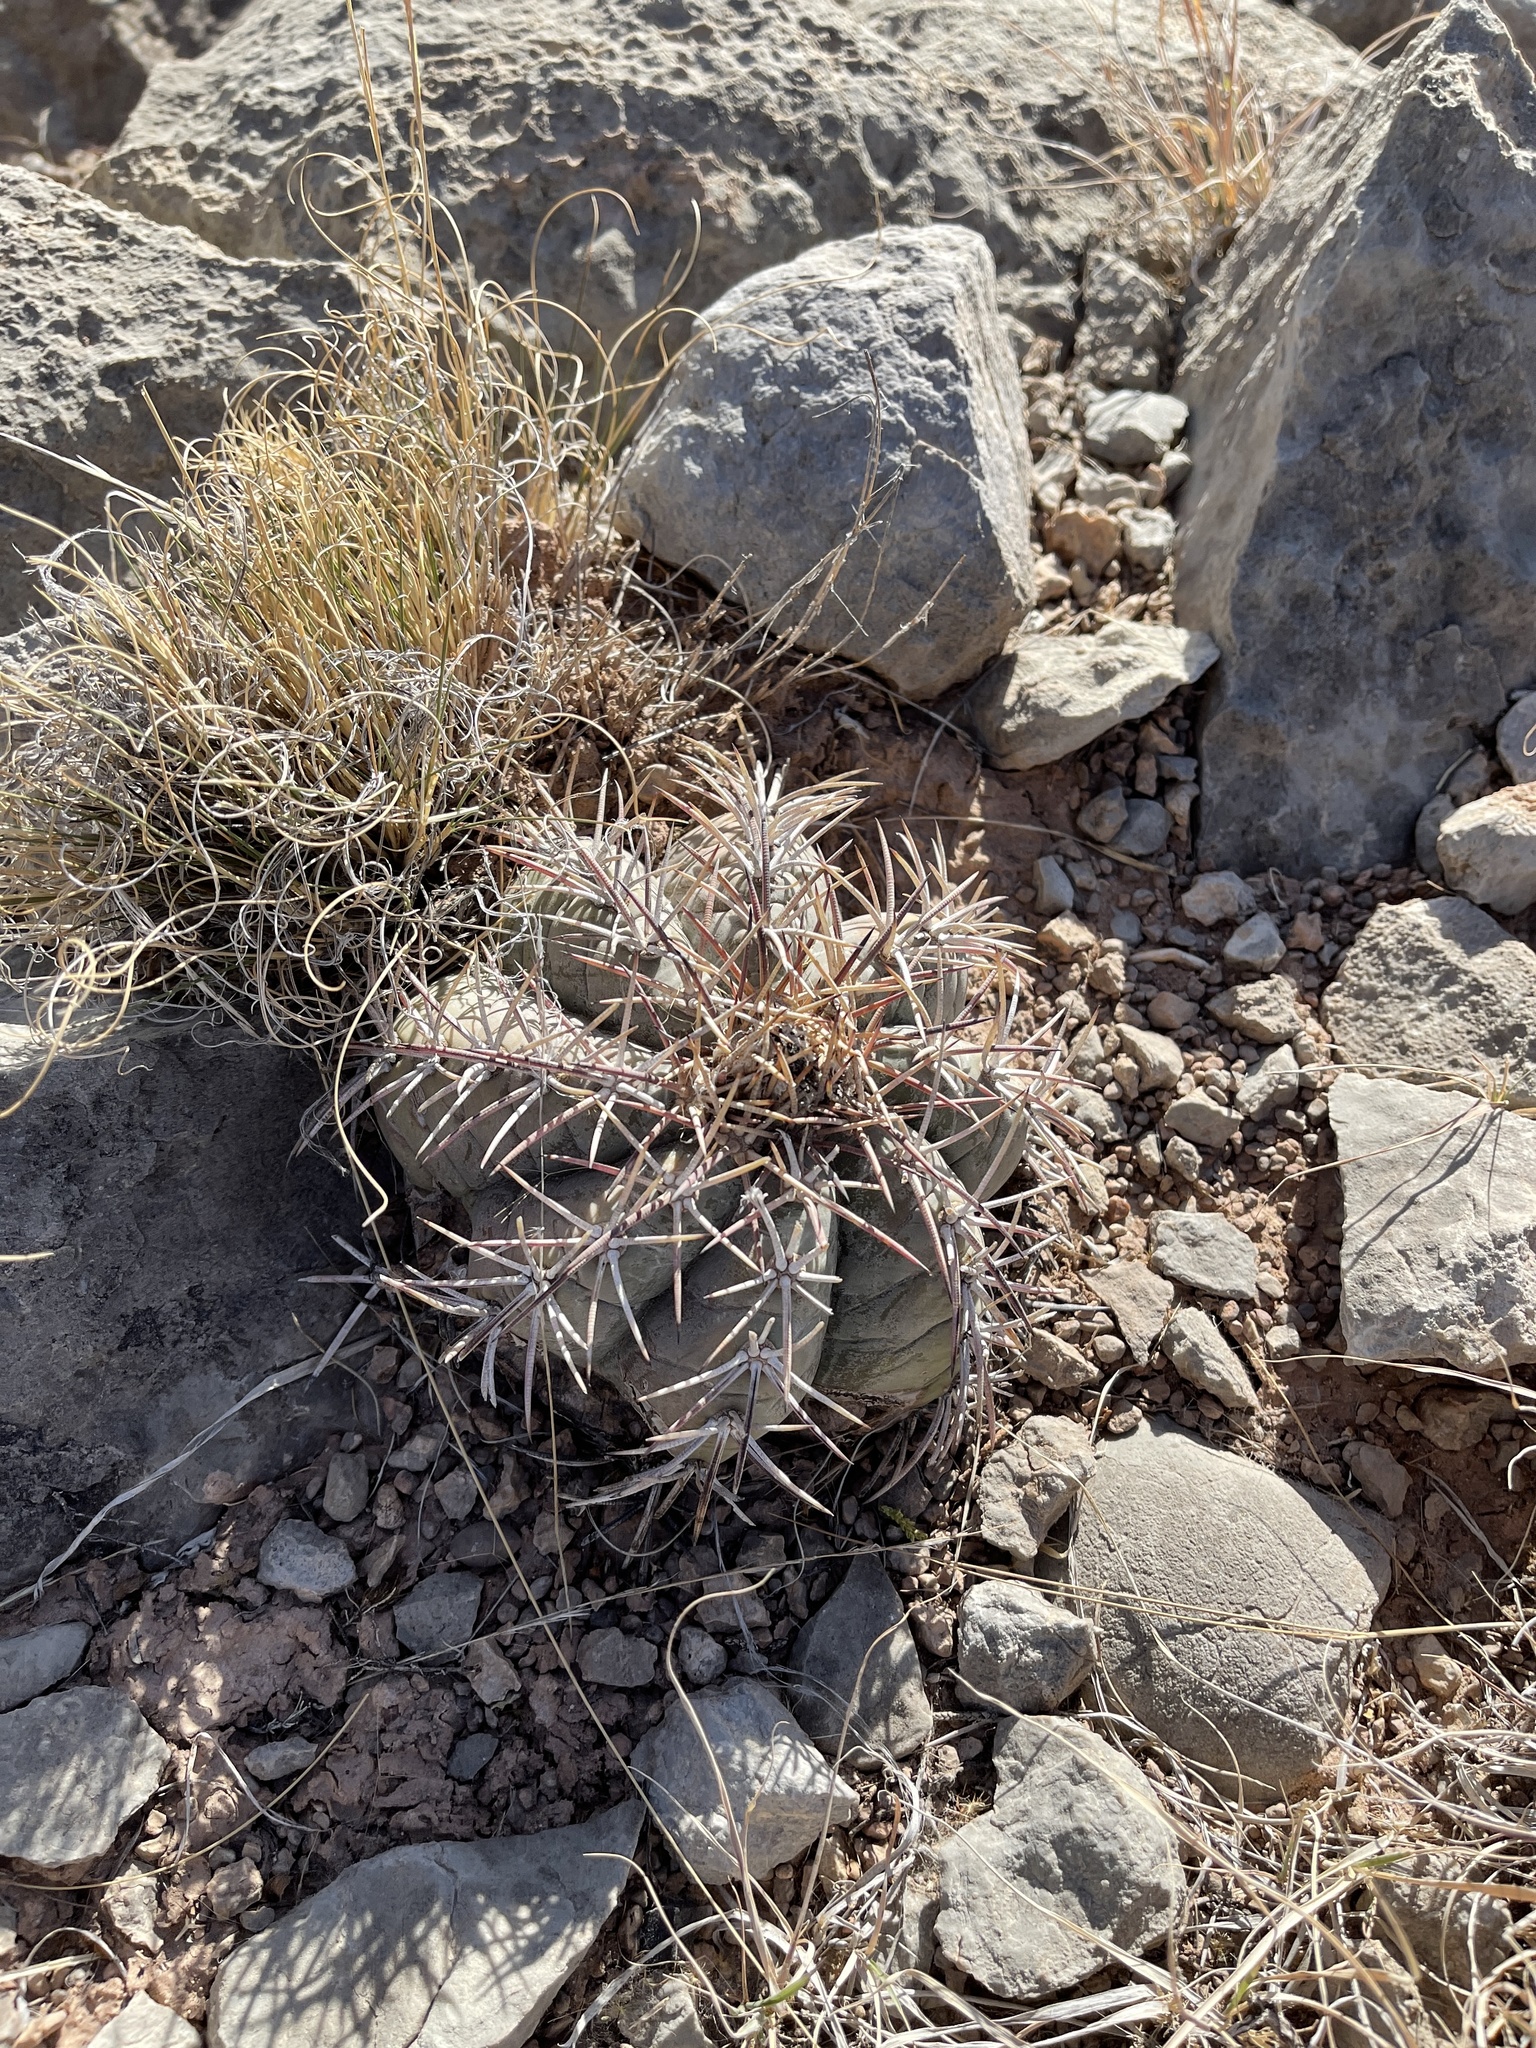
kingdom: Plantae
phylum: Tracheophyta
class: Magnoliopsida
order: Caryophyllales
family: Cactaceae
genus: Echinocactus
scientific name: Echinocactus horizonthalonius
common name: Devilshead
